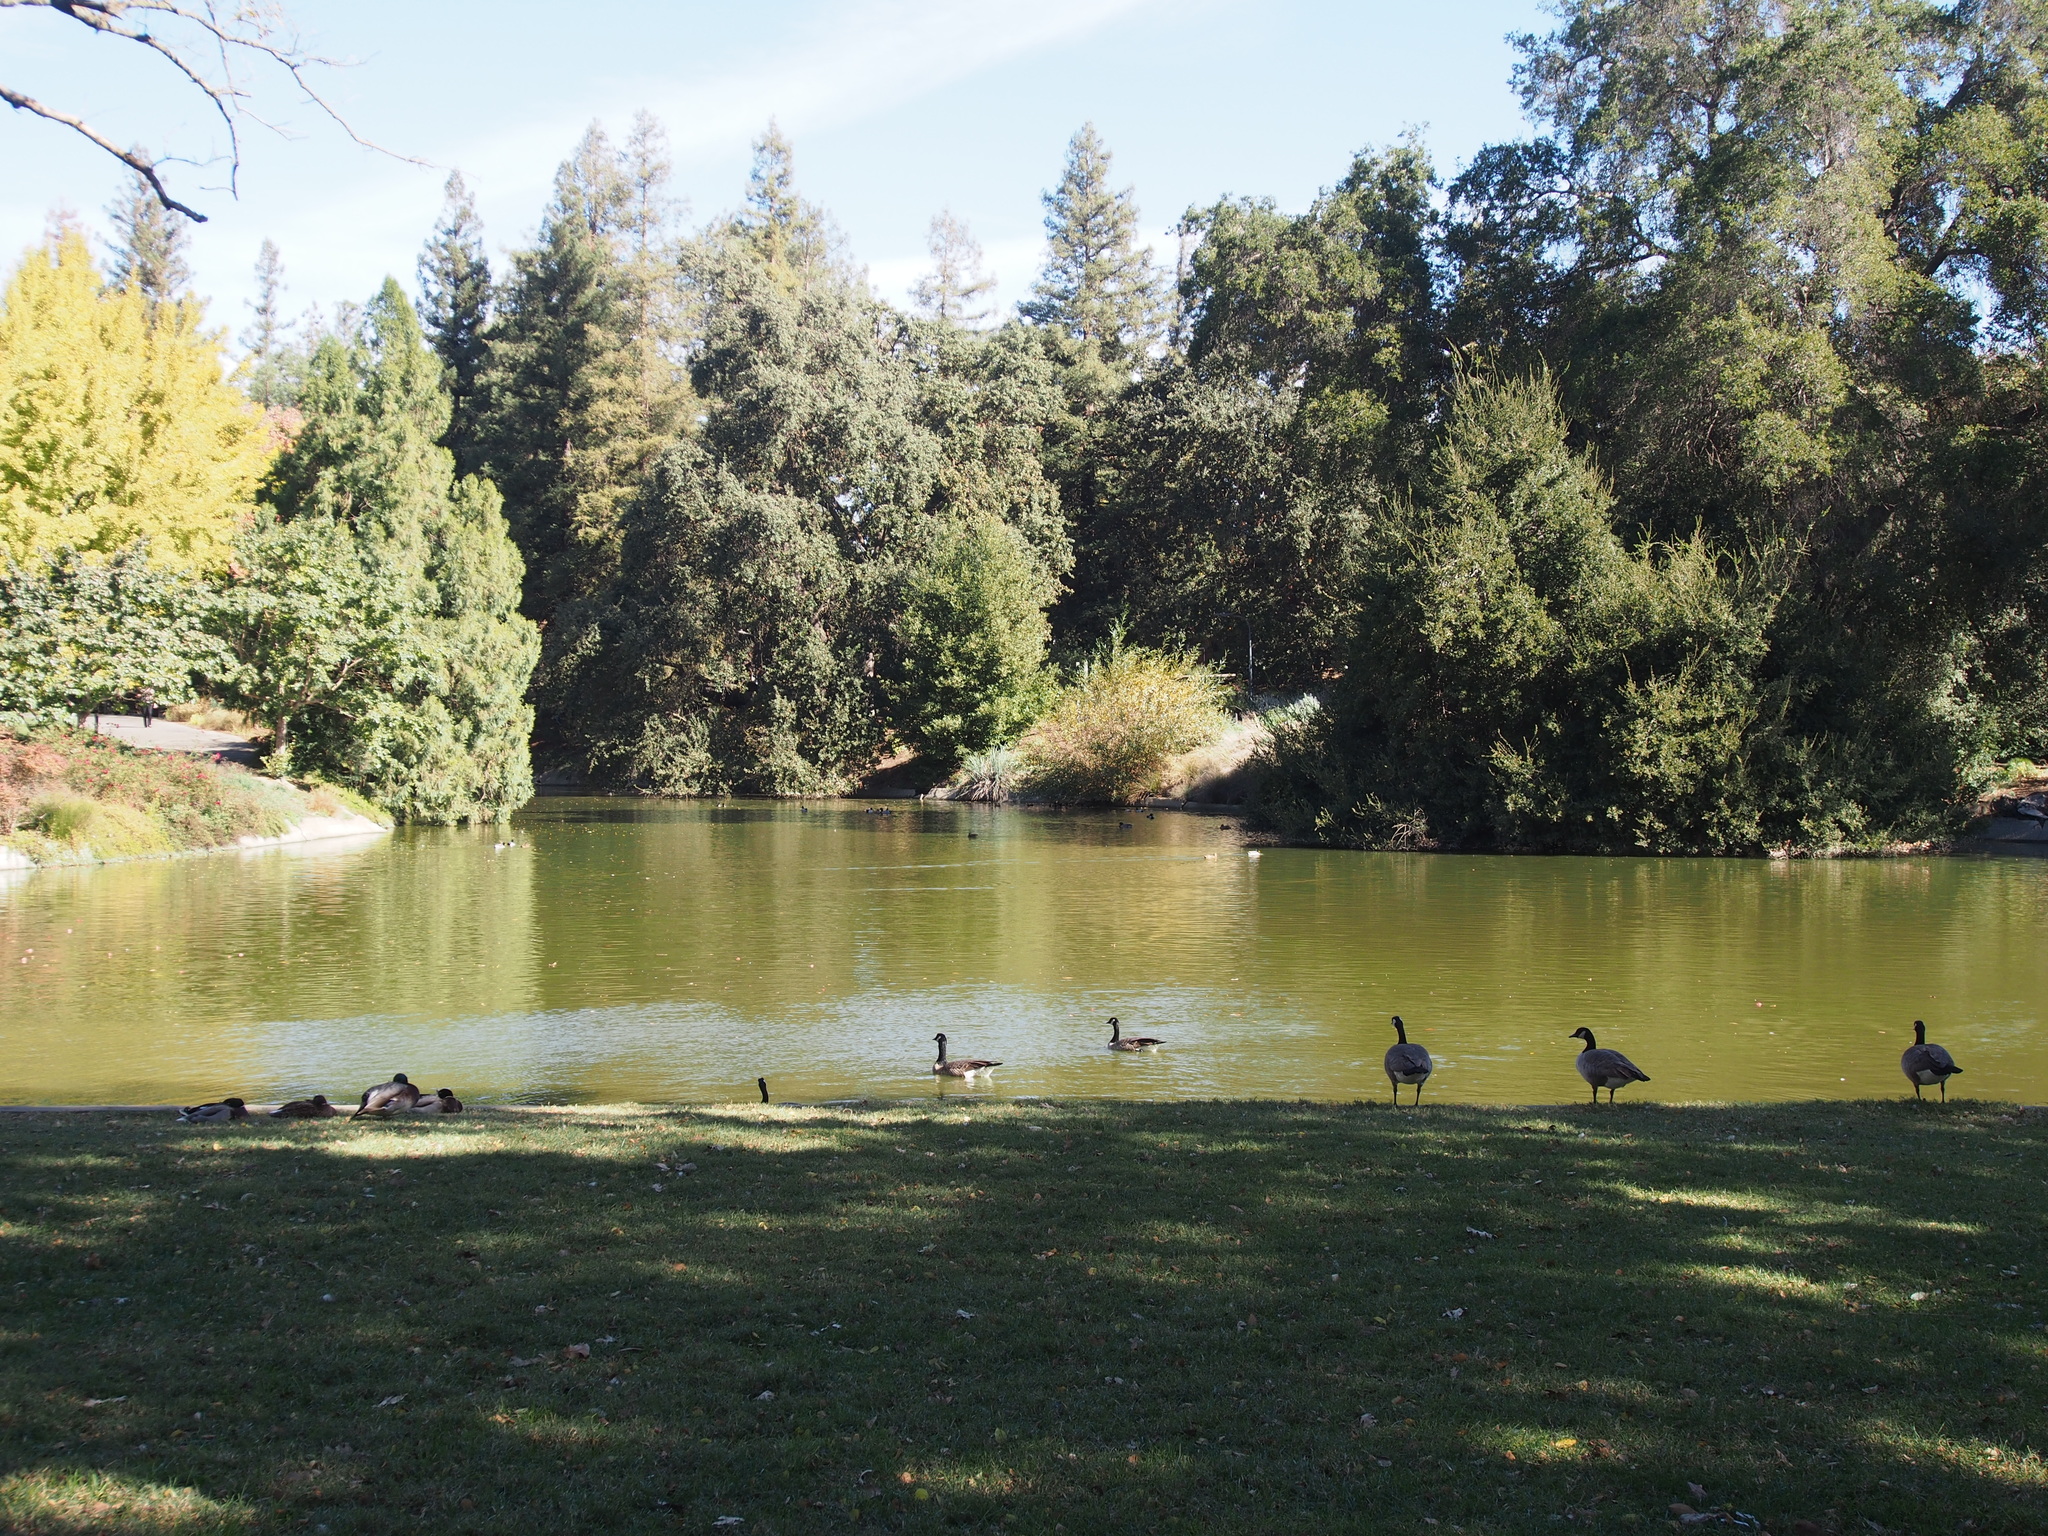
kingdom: Animalia
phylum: Chordata
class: Aves
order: Anseriformes
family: Anatidae
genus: Branta
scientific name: Branta canadensis
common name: Canada goose
